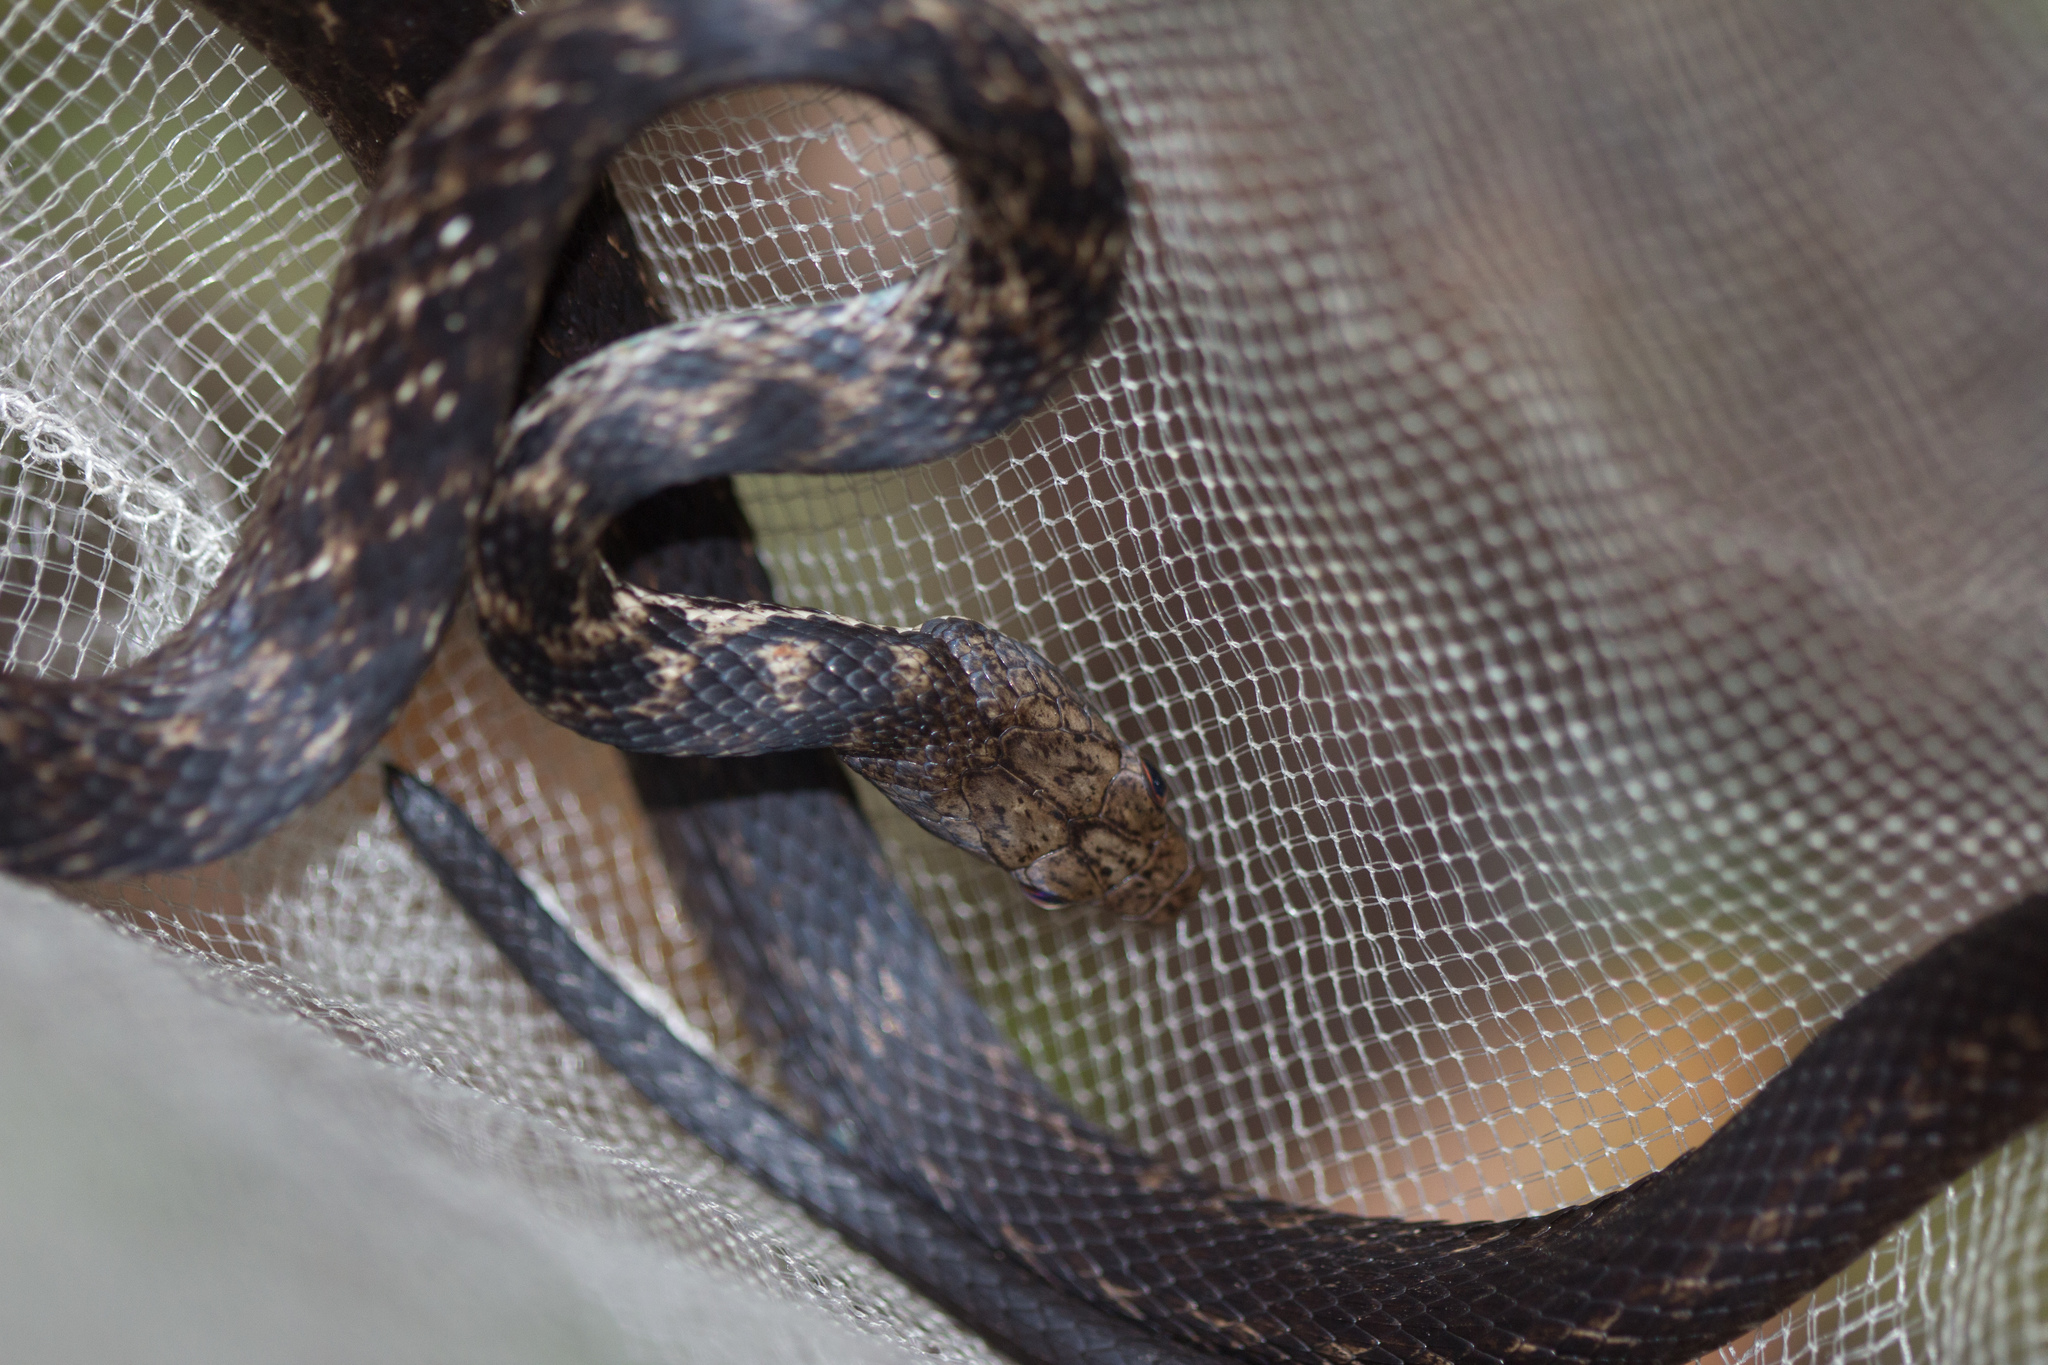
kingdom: Animalia
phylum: Chordata
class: Squamata
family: Colubridae
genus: Lycognathophis
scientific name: Lycognathophis seychellensis
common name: Seychelles wolf snake
